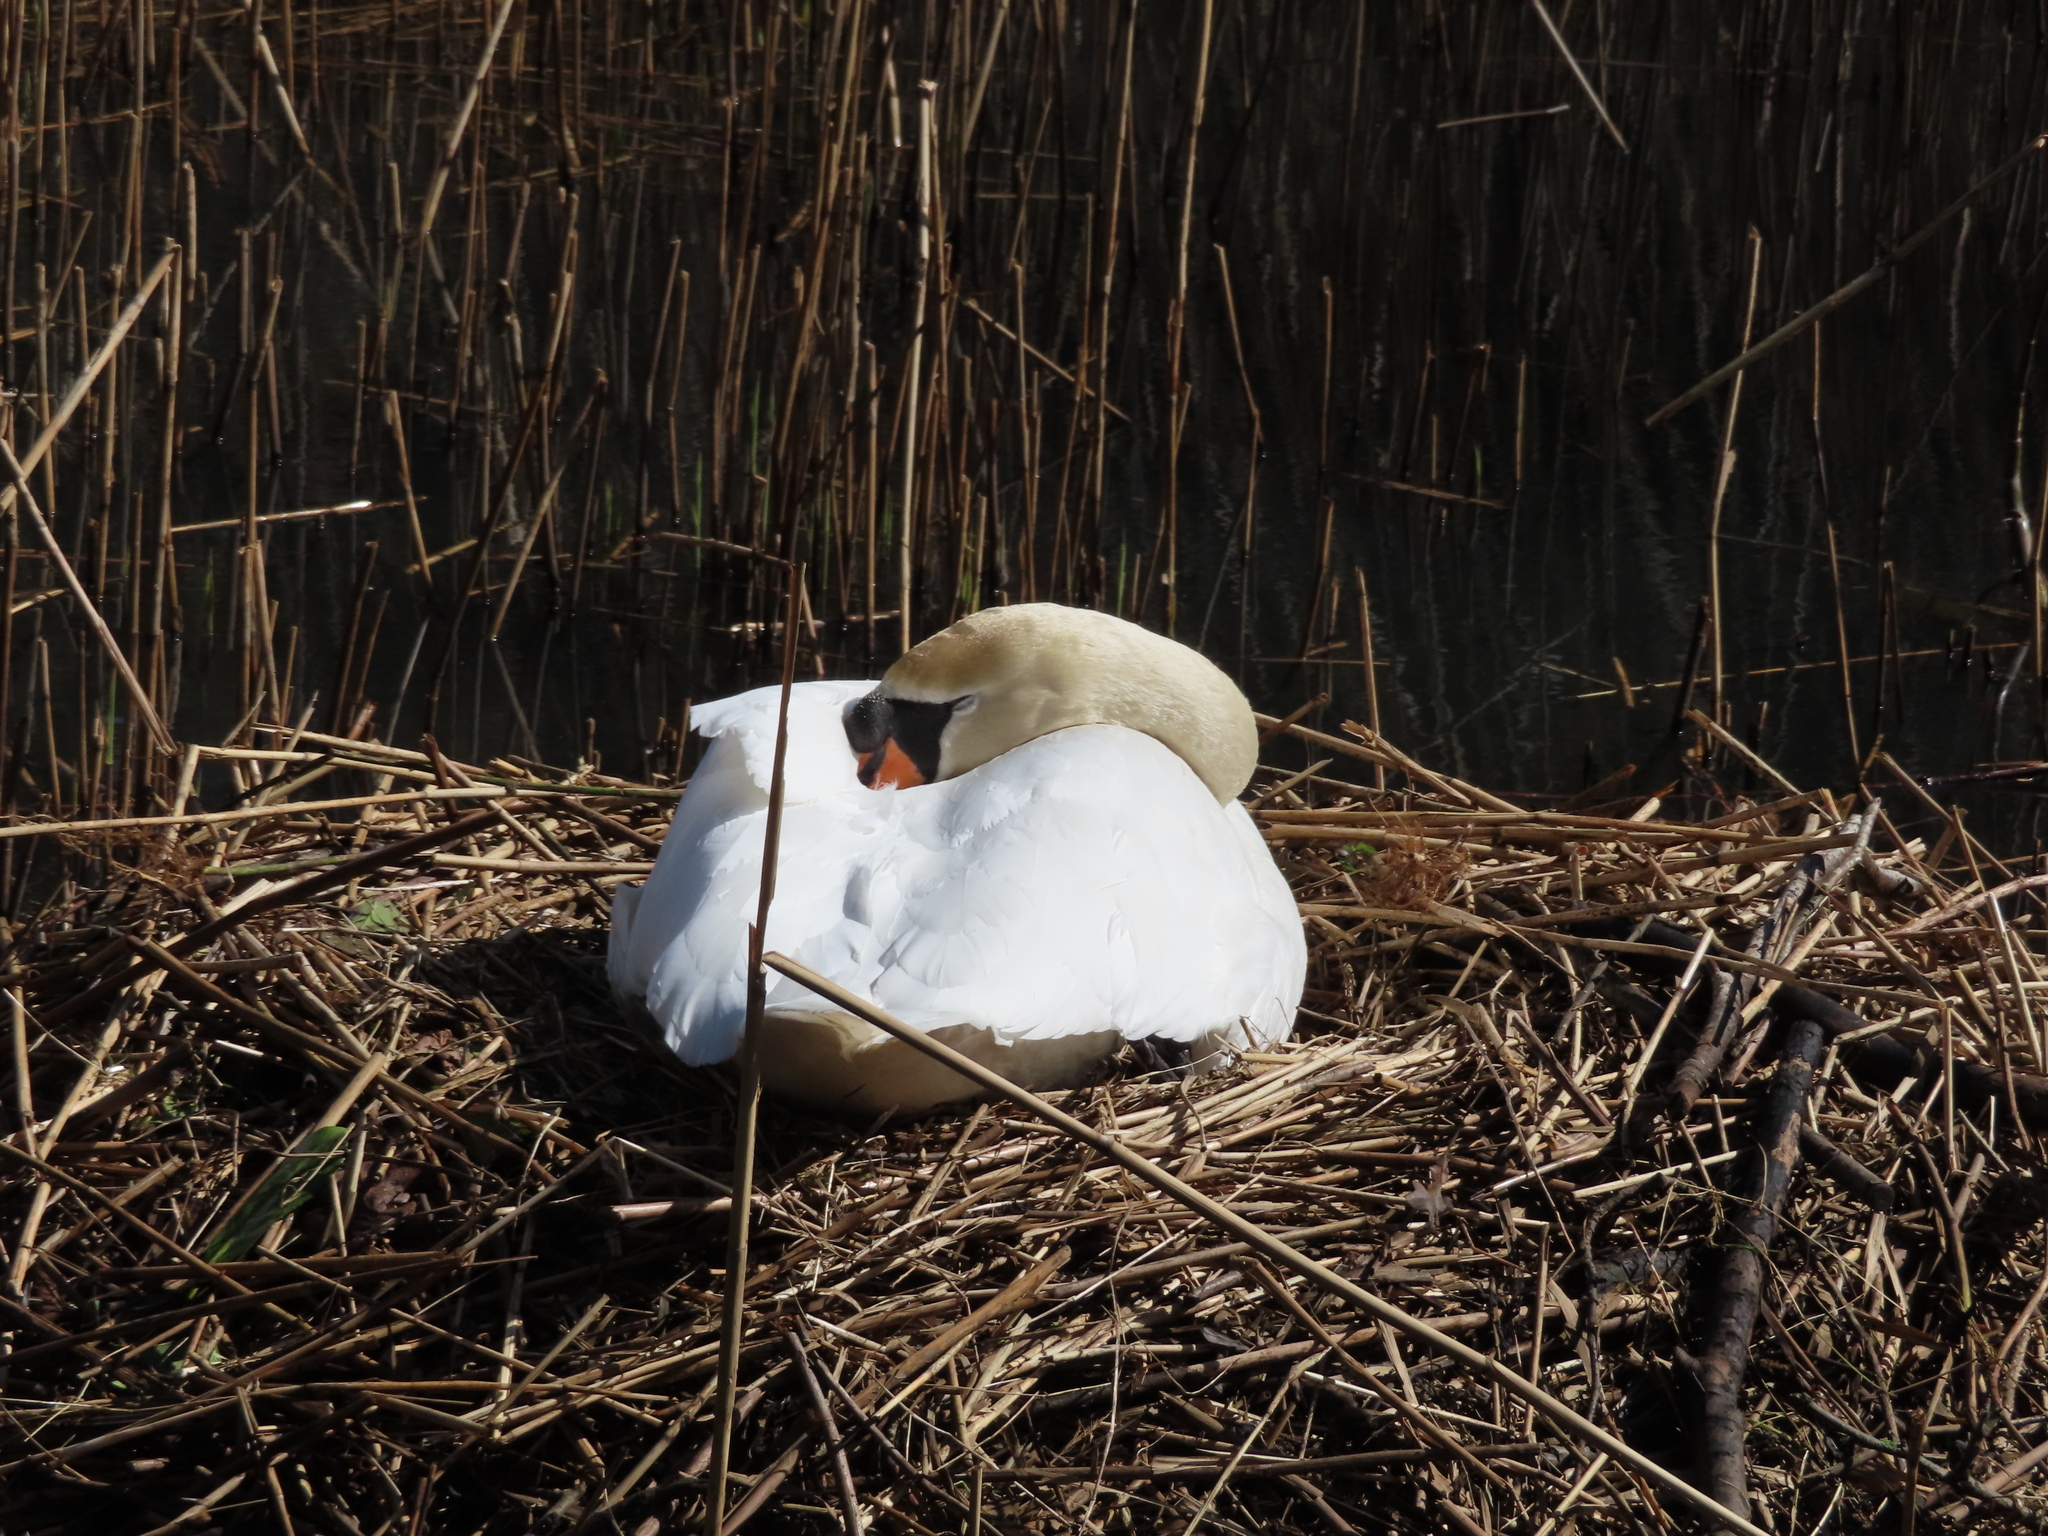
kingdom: Animalia
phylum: Chordata
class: Aves
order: Anseriformes
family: Anatidae
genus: Cygnus
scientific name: Cygnus olor
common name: Mute swan
